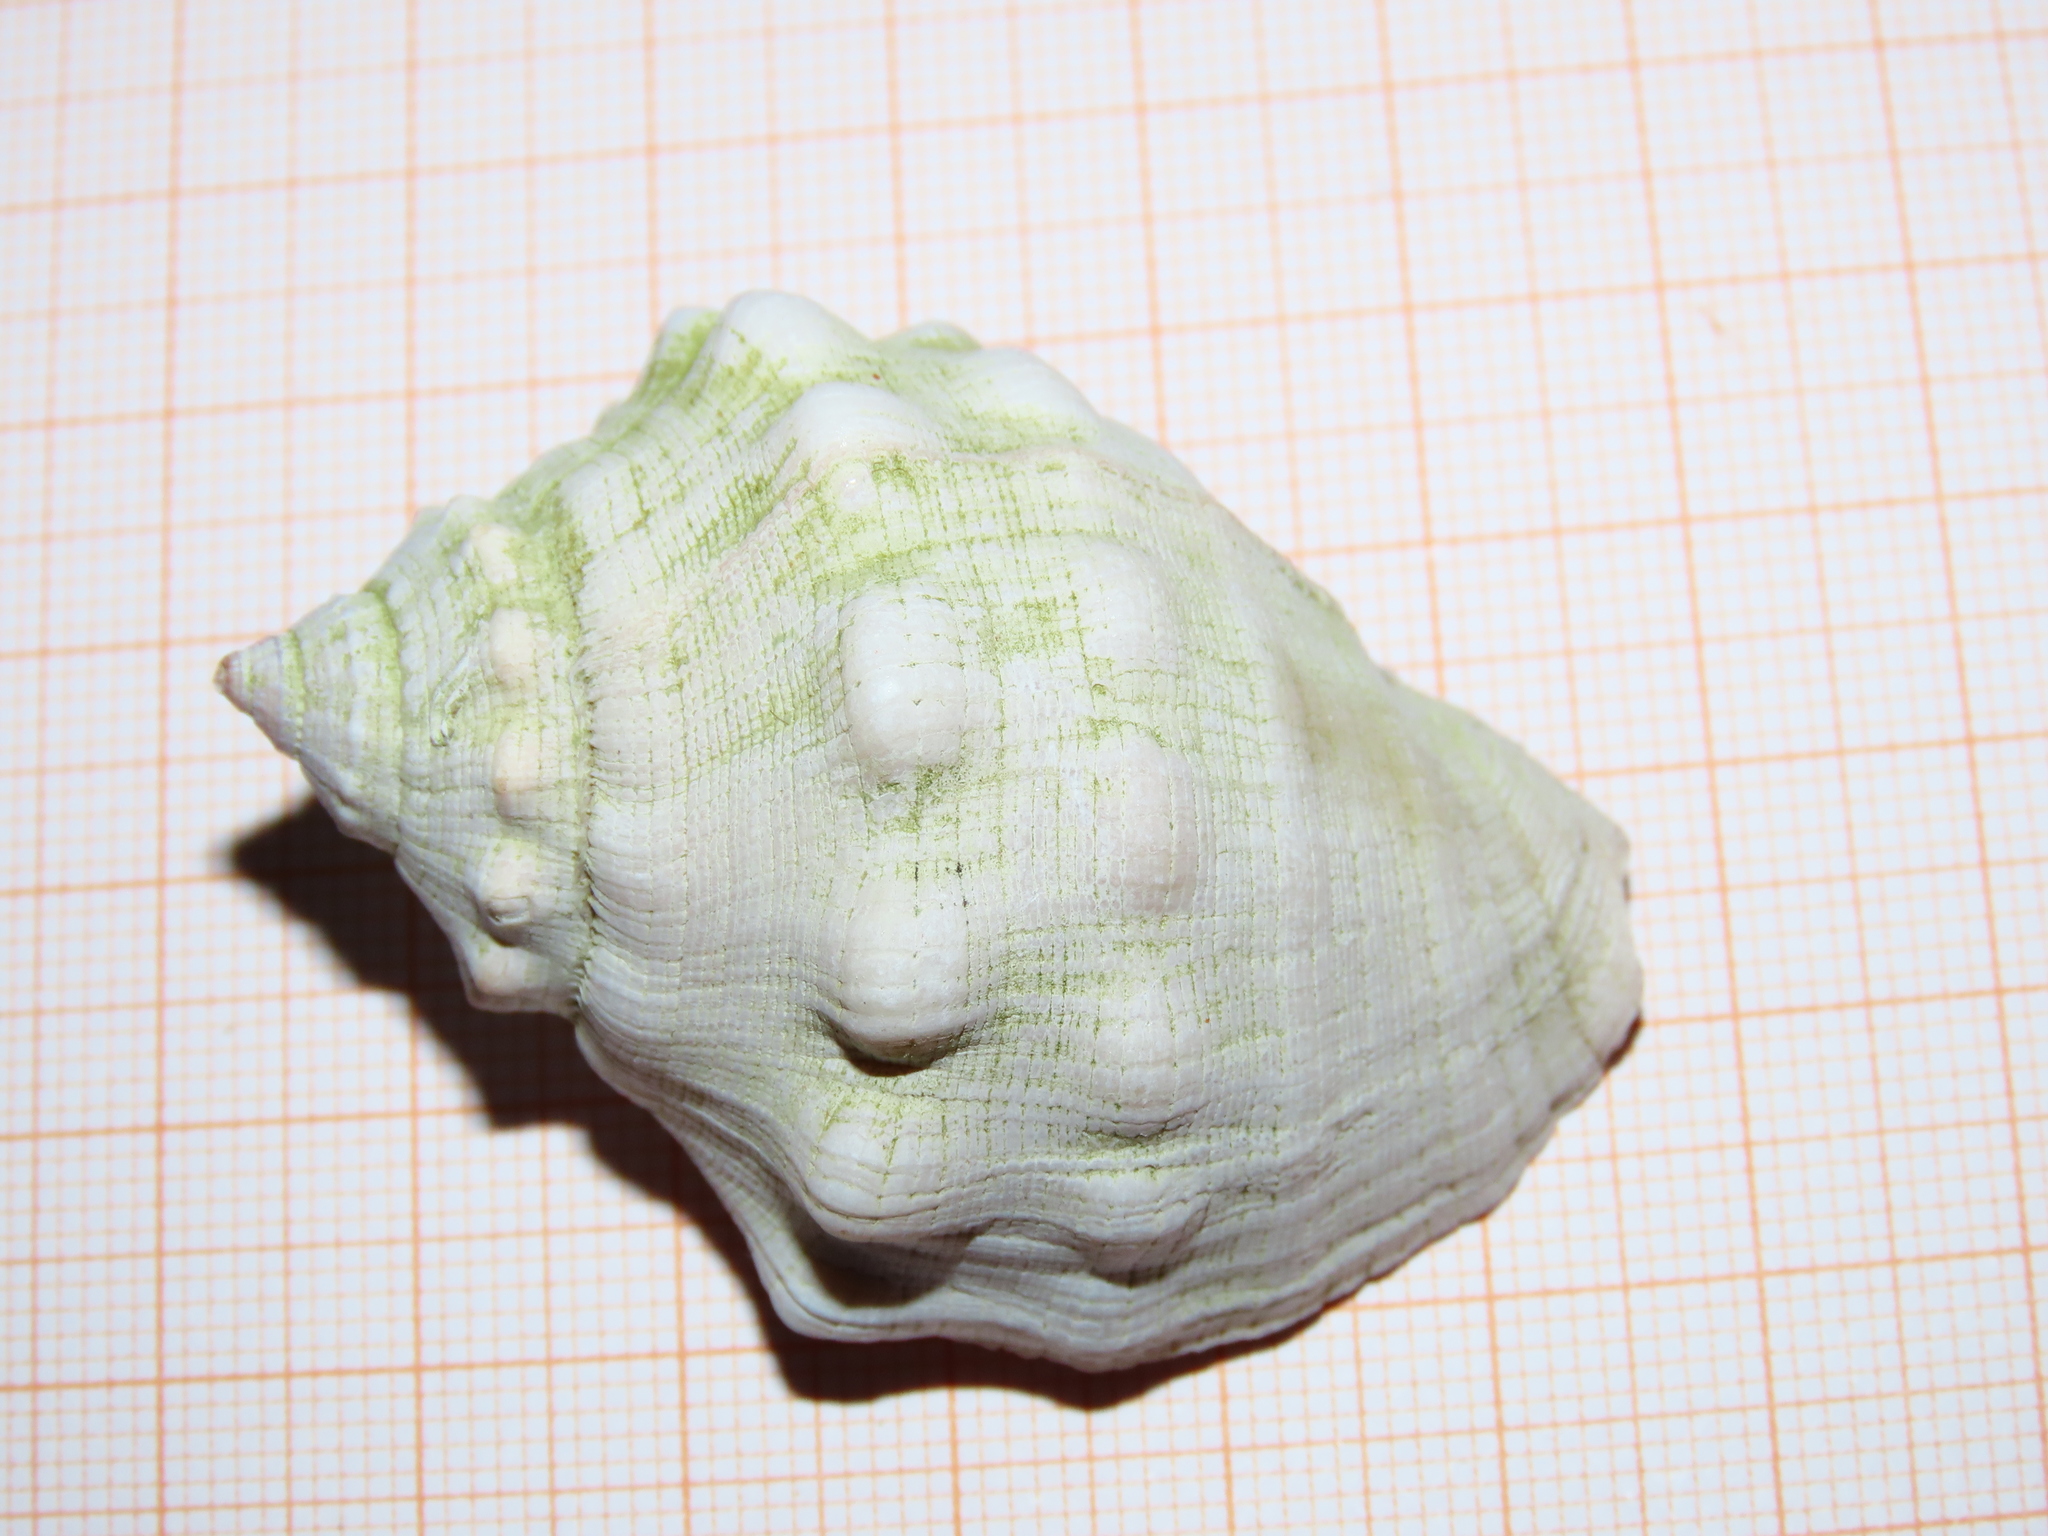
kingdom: Animalia
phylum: Mollusca
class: Gastropoda
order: Neogastropoda
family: Muricidae
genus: Stramonita
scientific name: Stramonita haemastoma
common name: Florida dog winkle
